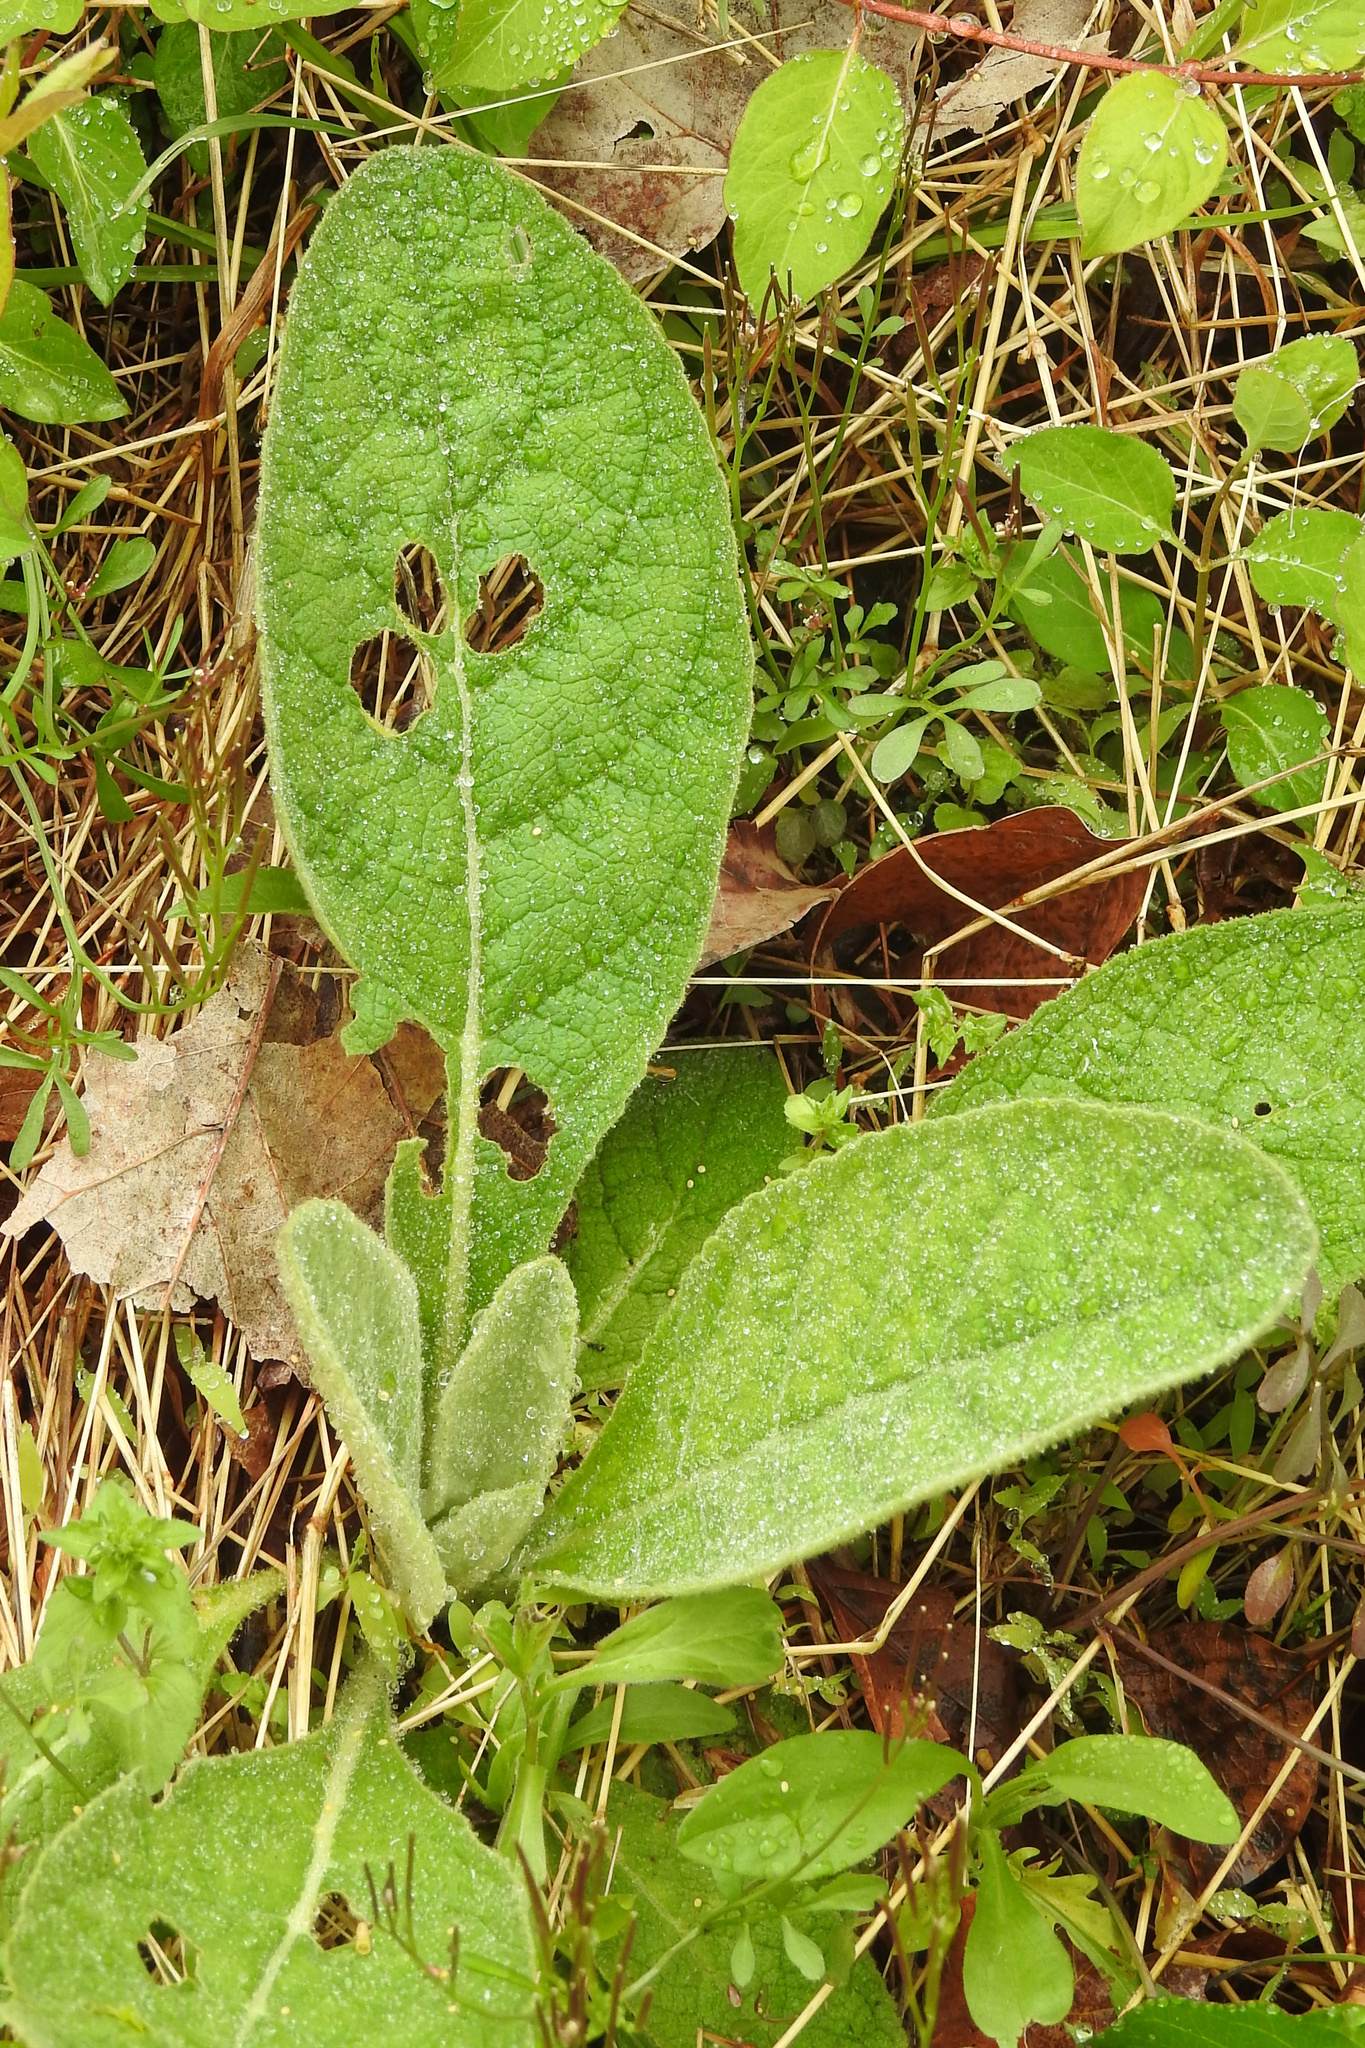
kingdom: Plantae
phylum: Tracheophyta
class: Magnoliopsida
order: Lamiales
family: Scrophulariaceae
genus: Verbascum
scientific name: Verbascum thapsus
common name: Common mullein
